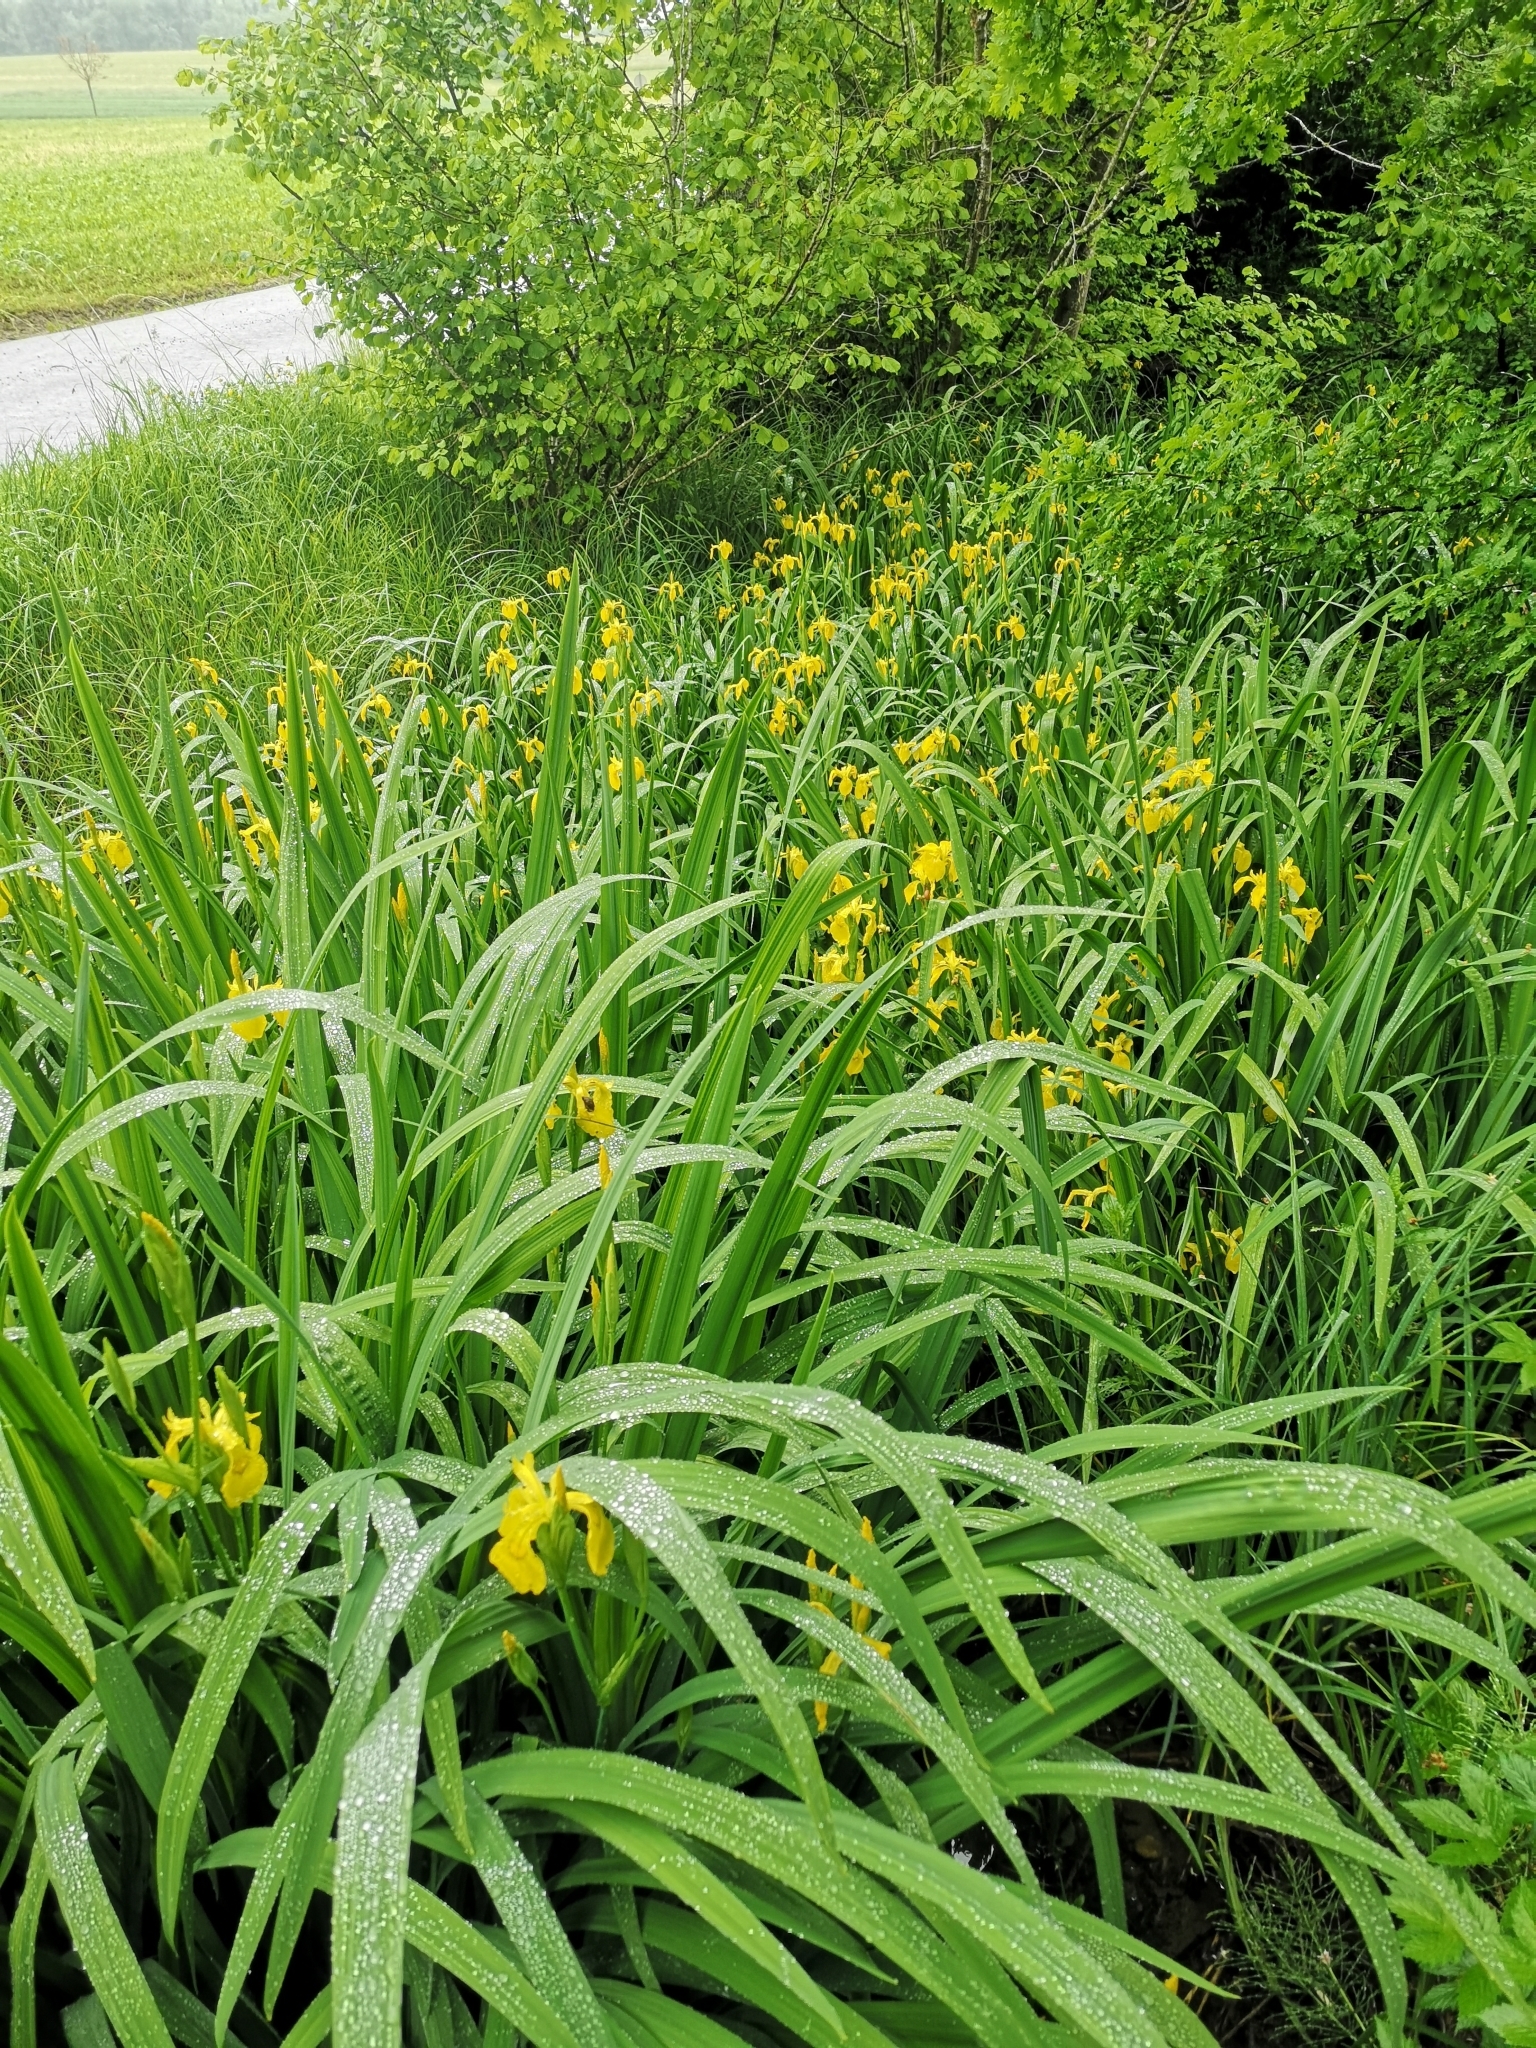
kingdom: Plantae
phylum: Tracheophyta
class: Liliopsida
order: Asparagales
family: Iridaceae
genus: Iris
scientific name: Iris pseudacorus
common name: Yellow flag
